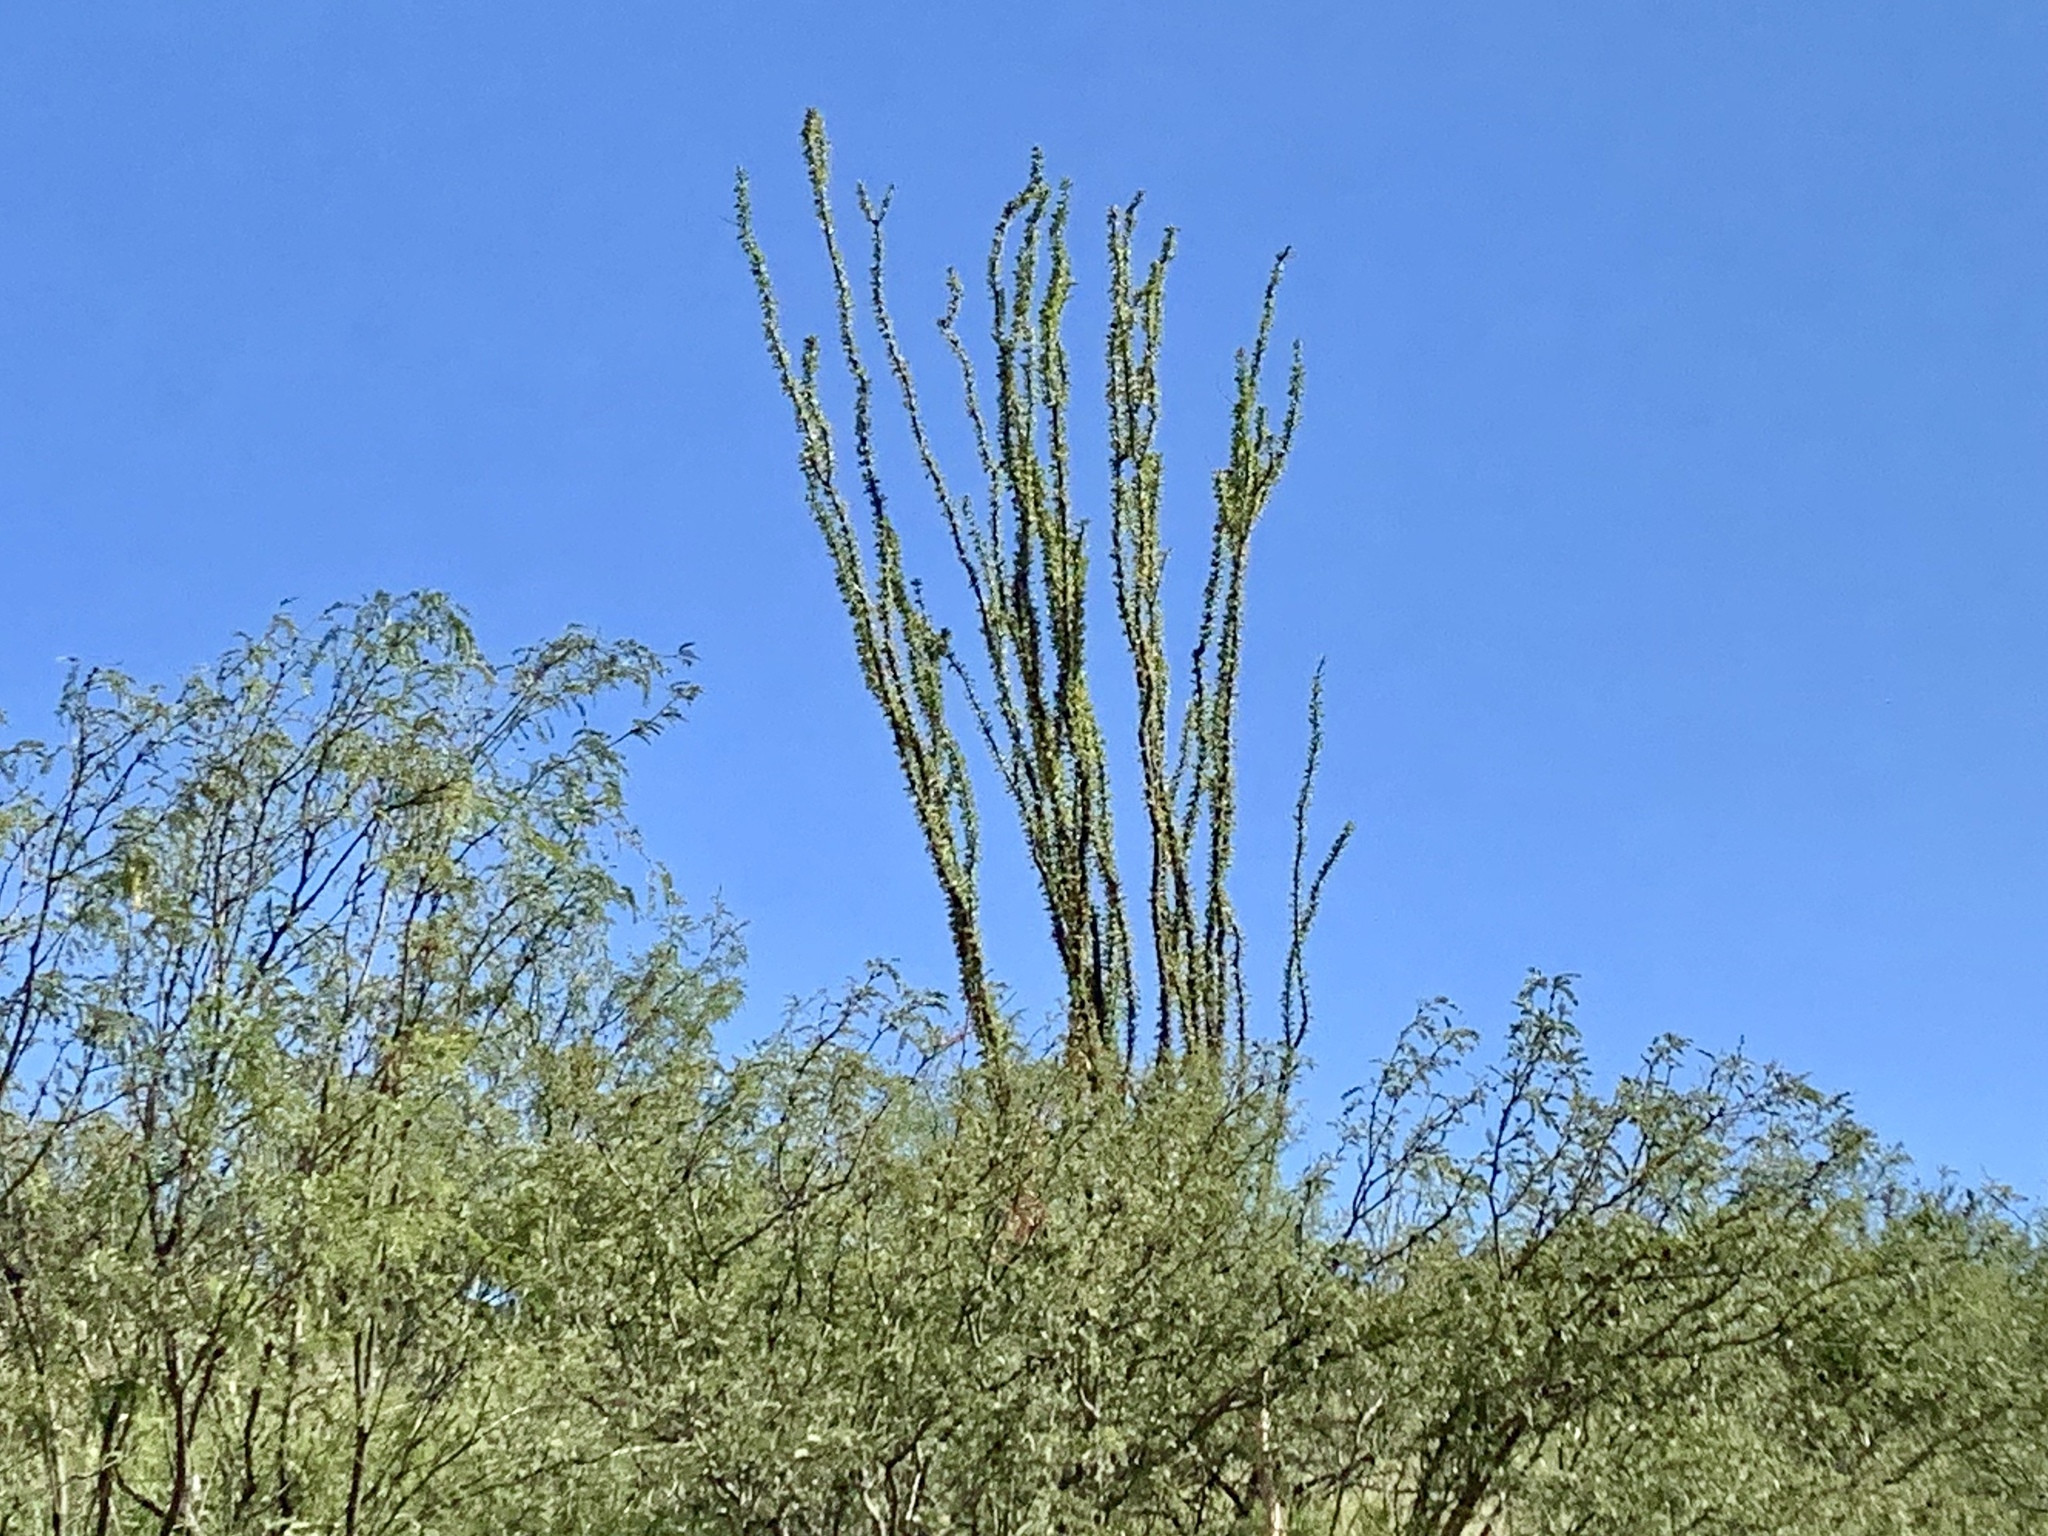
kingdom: Plantae
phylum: Tracheophyta
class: Magnoliopsida
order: Ericales
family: Fouquieriaceae
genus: Fouquieria
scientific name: Fouquieria splendens
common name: Vine-cactus
